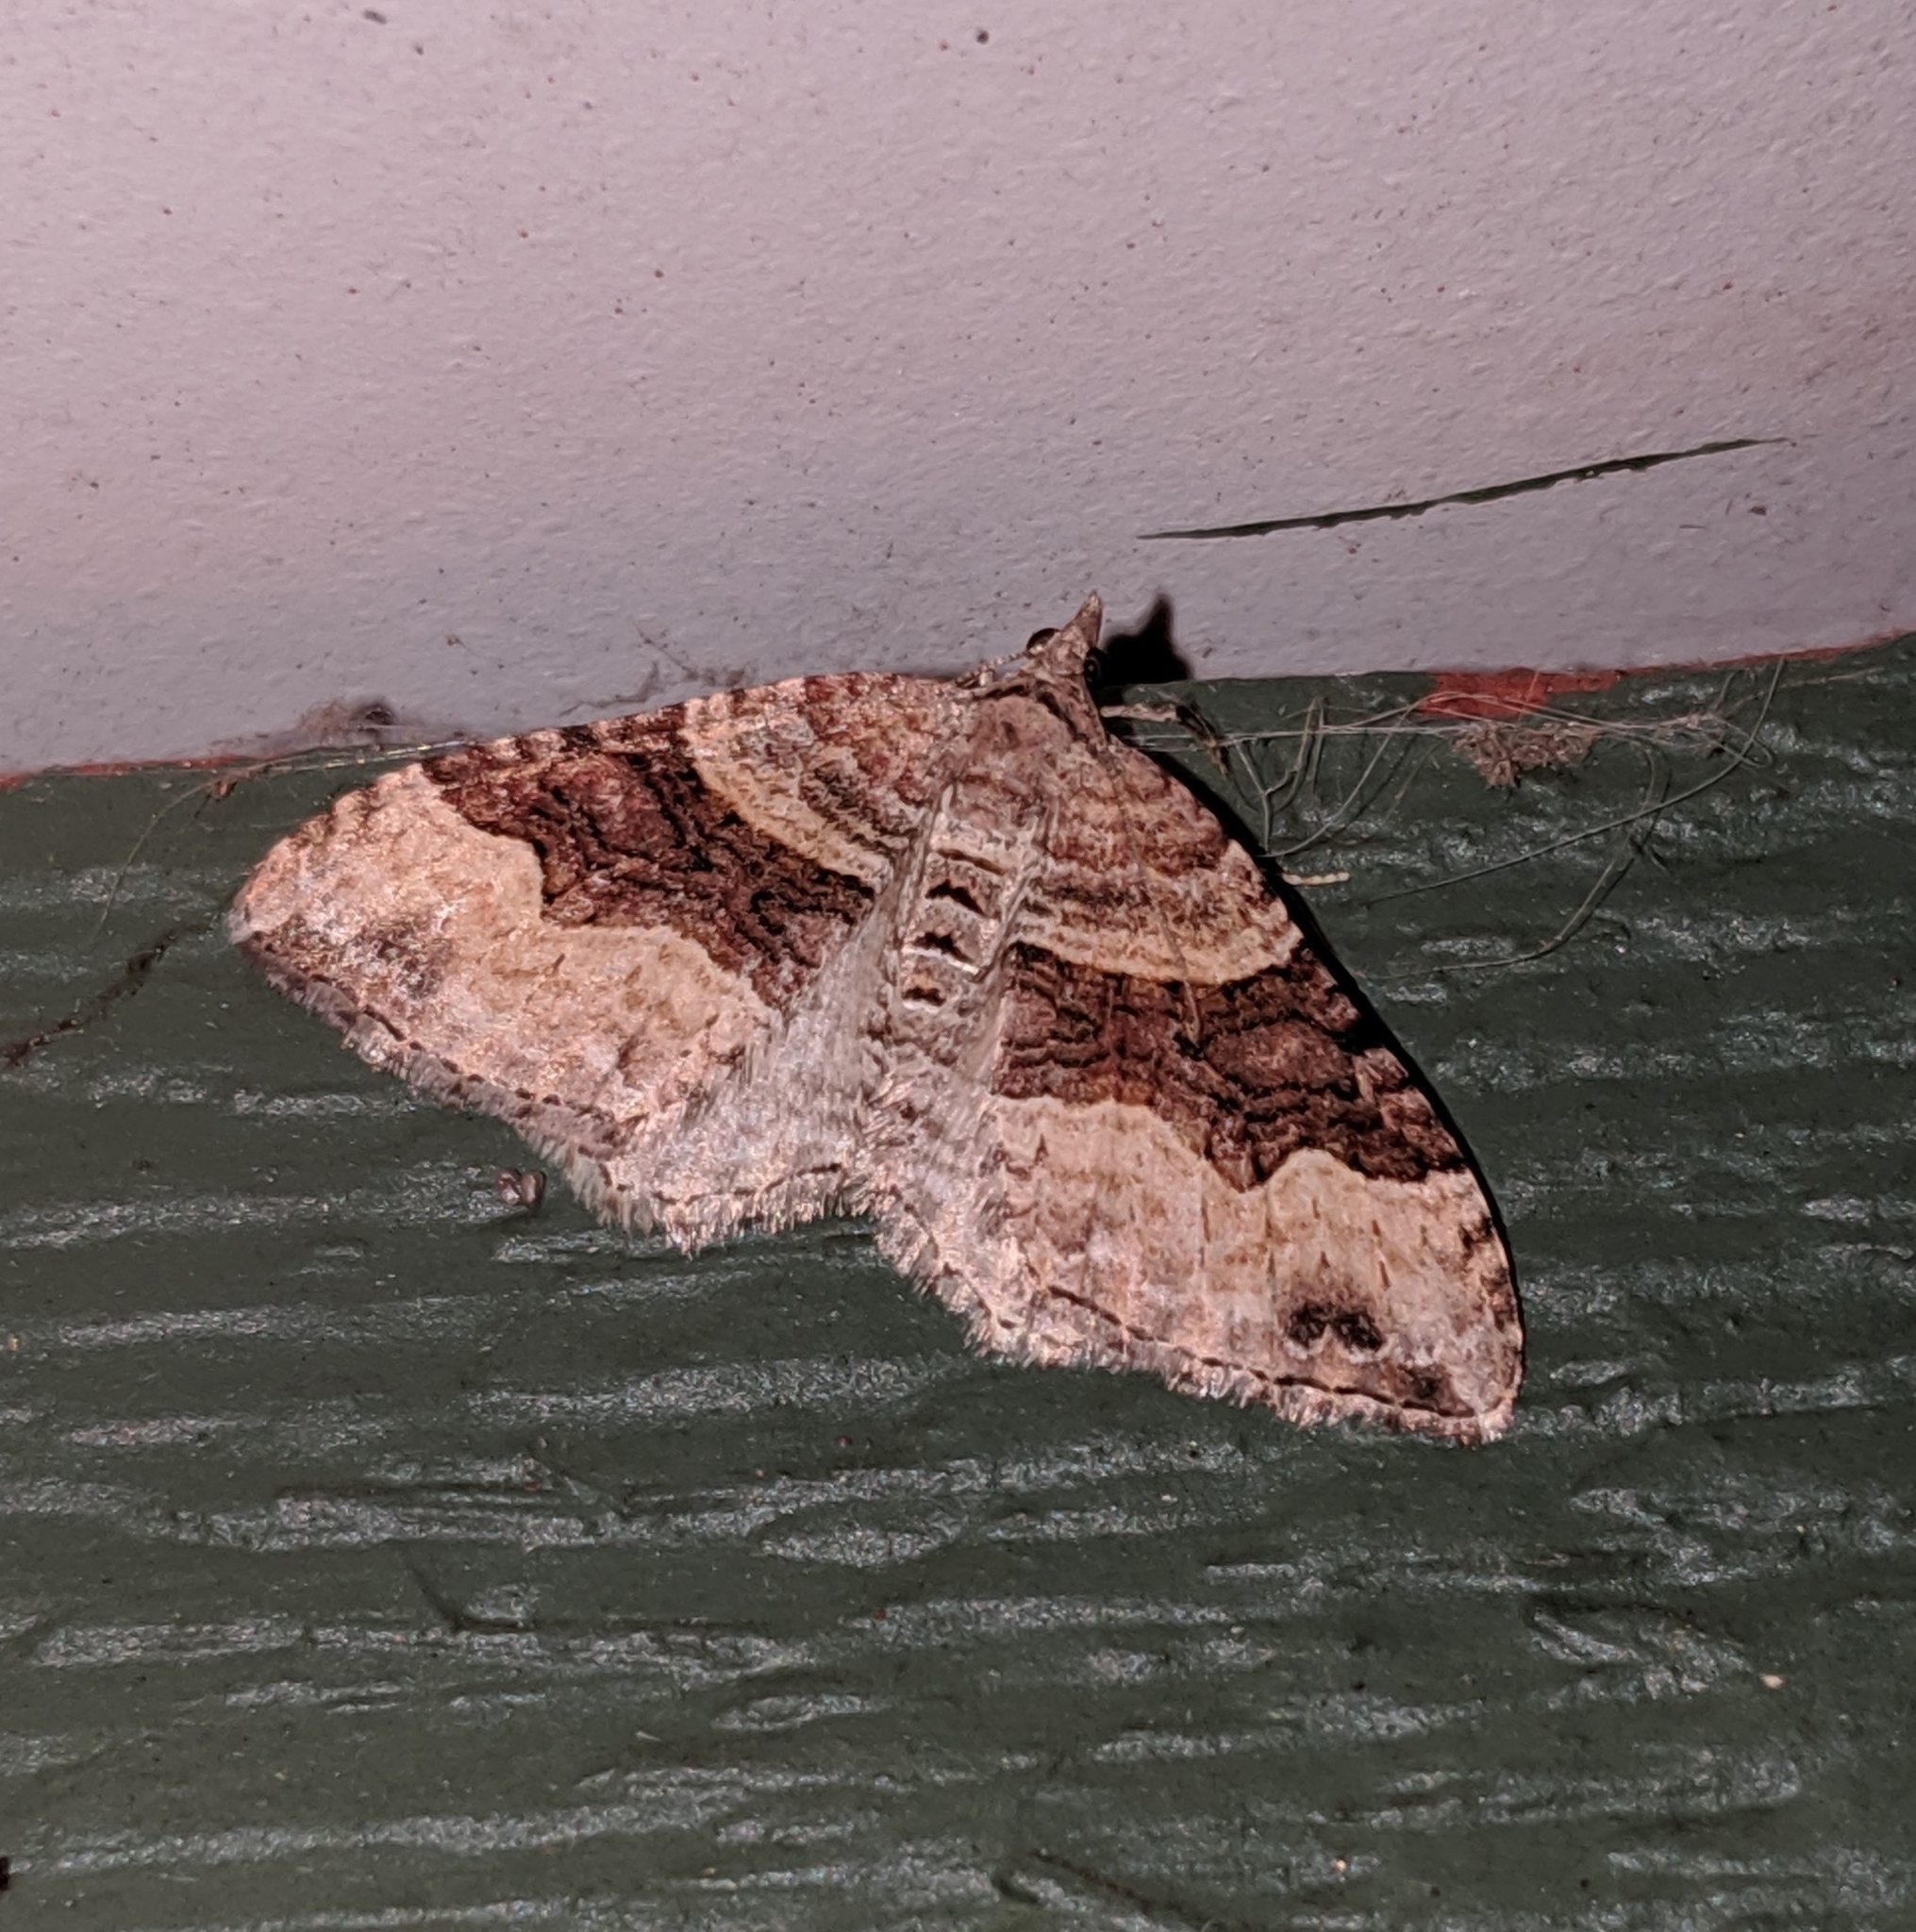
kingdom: Animalia
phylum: Arthropoda
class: Insecta
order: Lepidoptera
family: Geometridae
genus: Xanthorhoe
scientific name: Xanthorhoe defensaria
